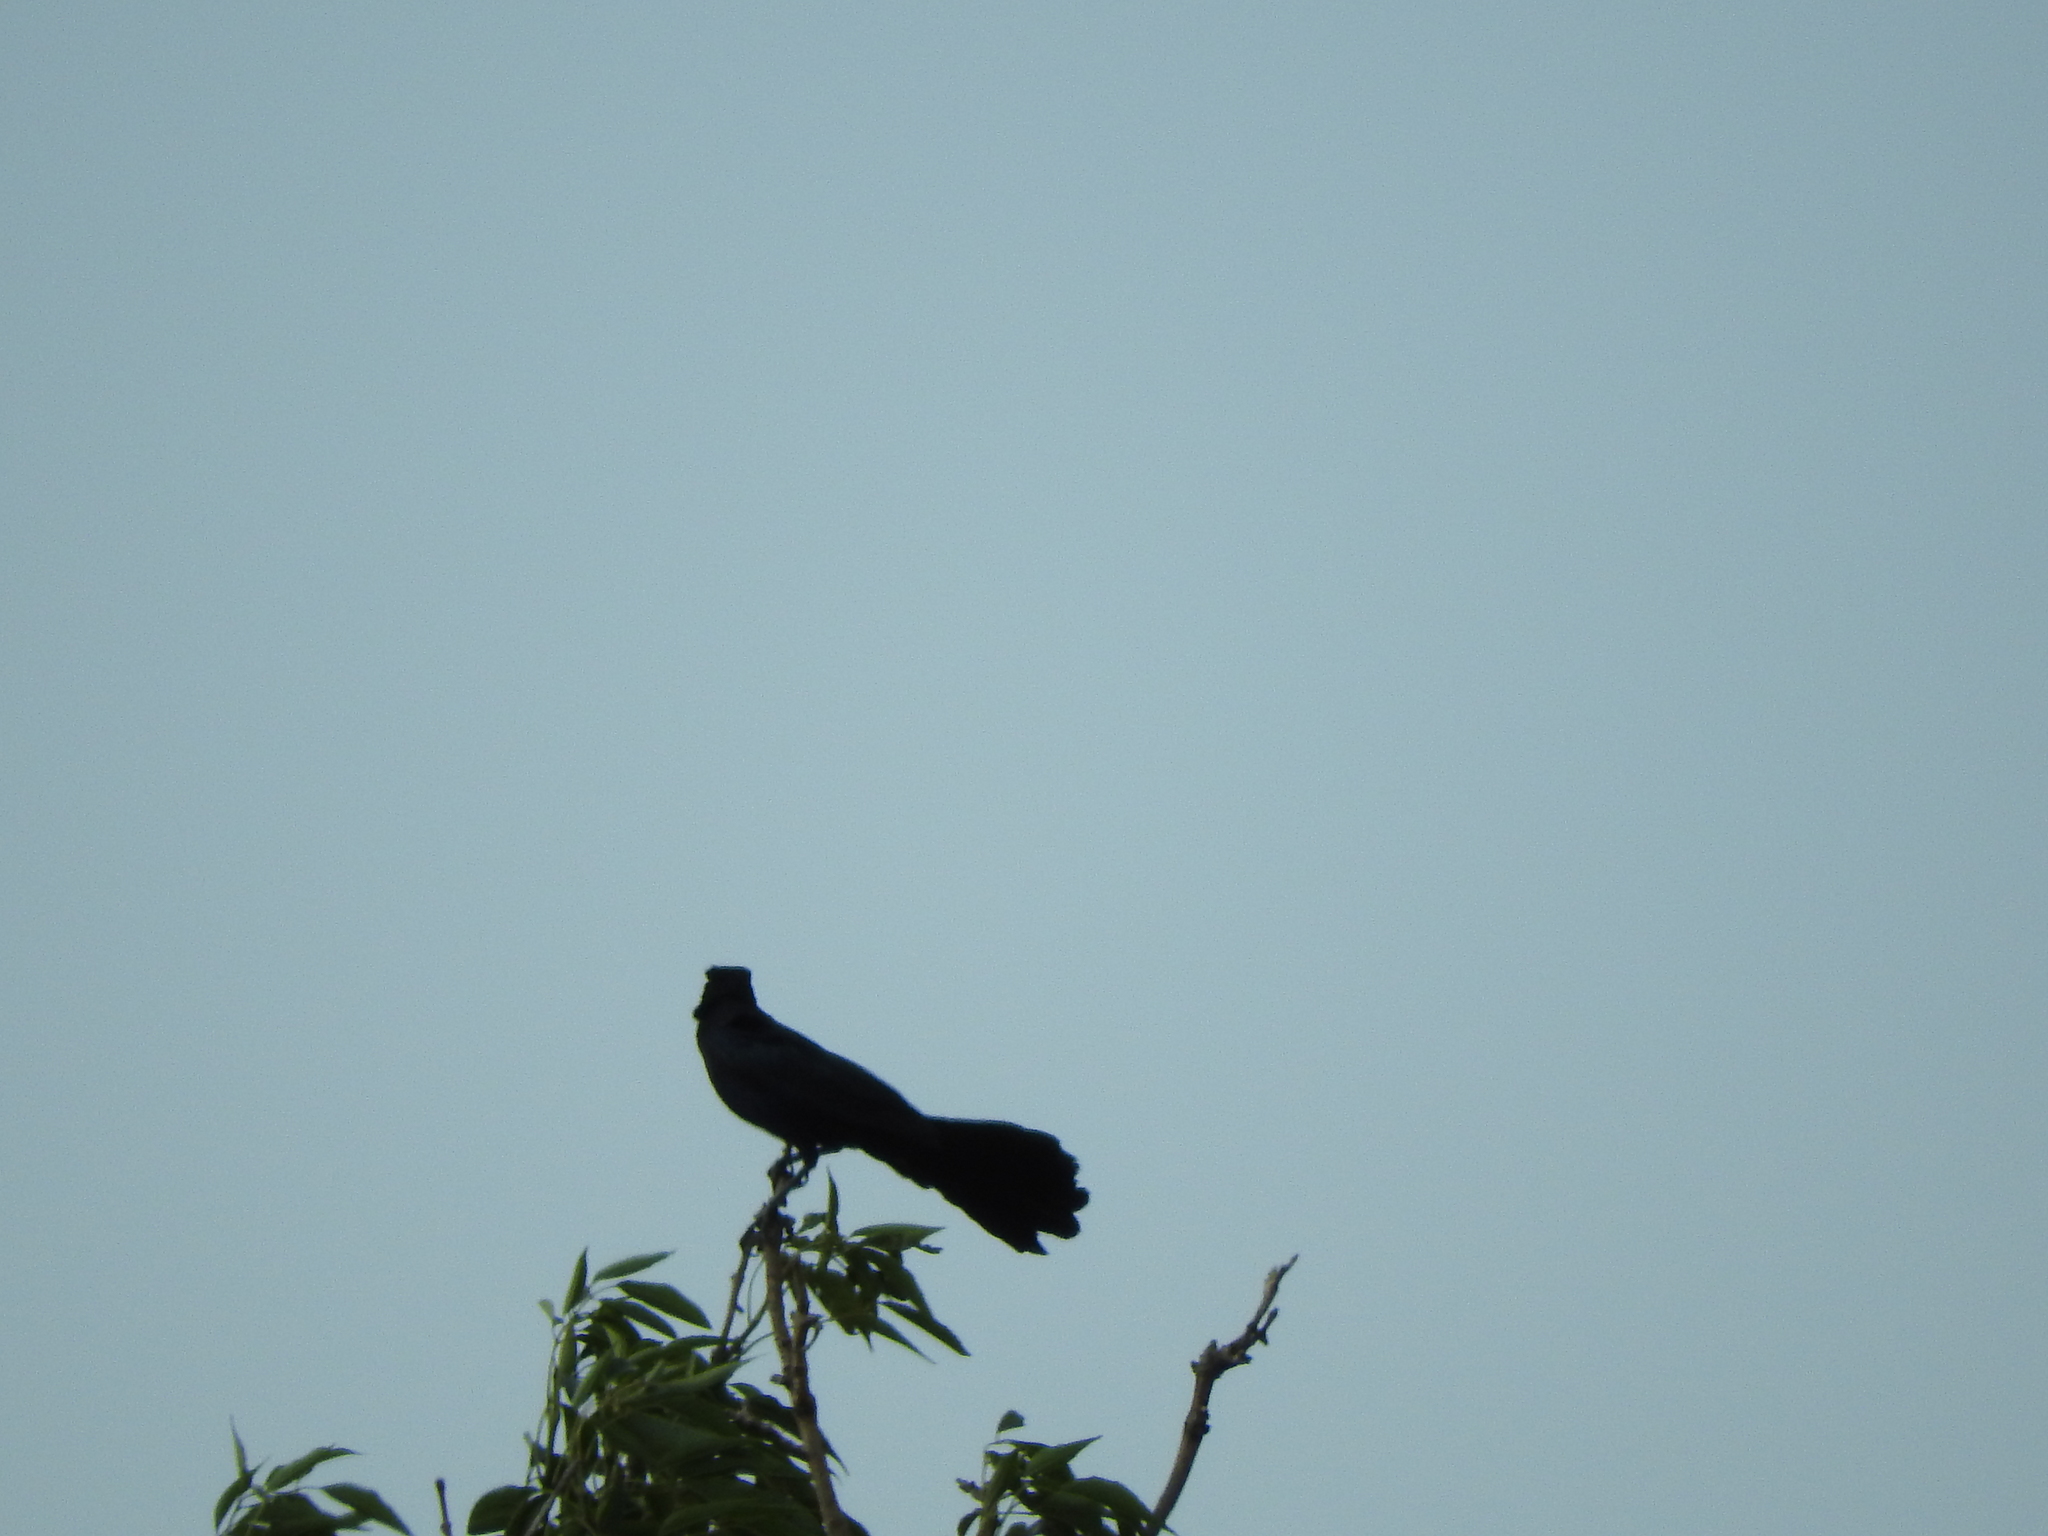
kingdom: Animalia
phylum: Chordata
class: Aves
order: Passeriformes
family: Icteridae
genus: Quiscalus
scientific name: Quiscalus mexicanus
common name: Great-tailed grackle
